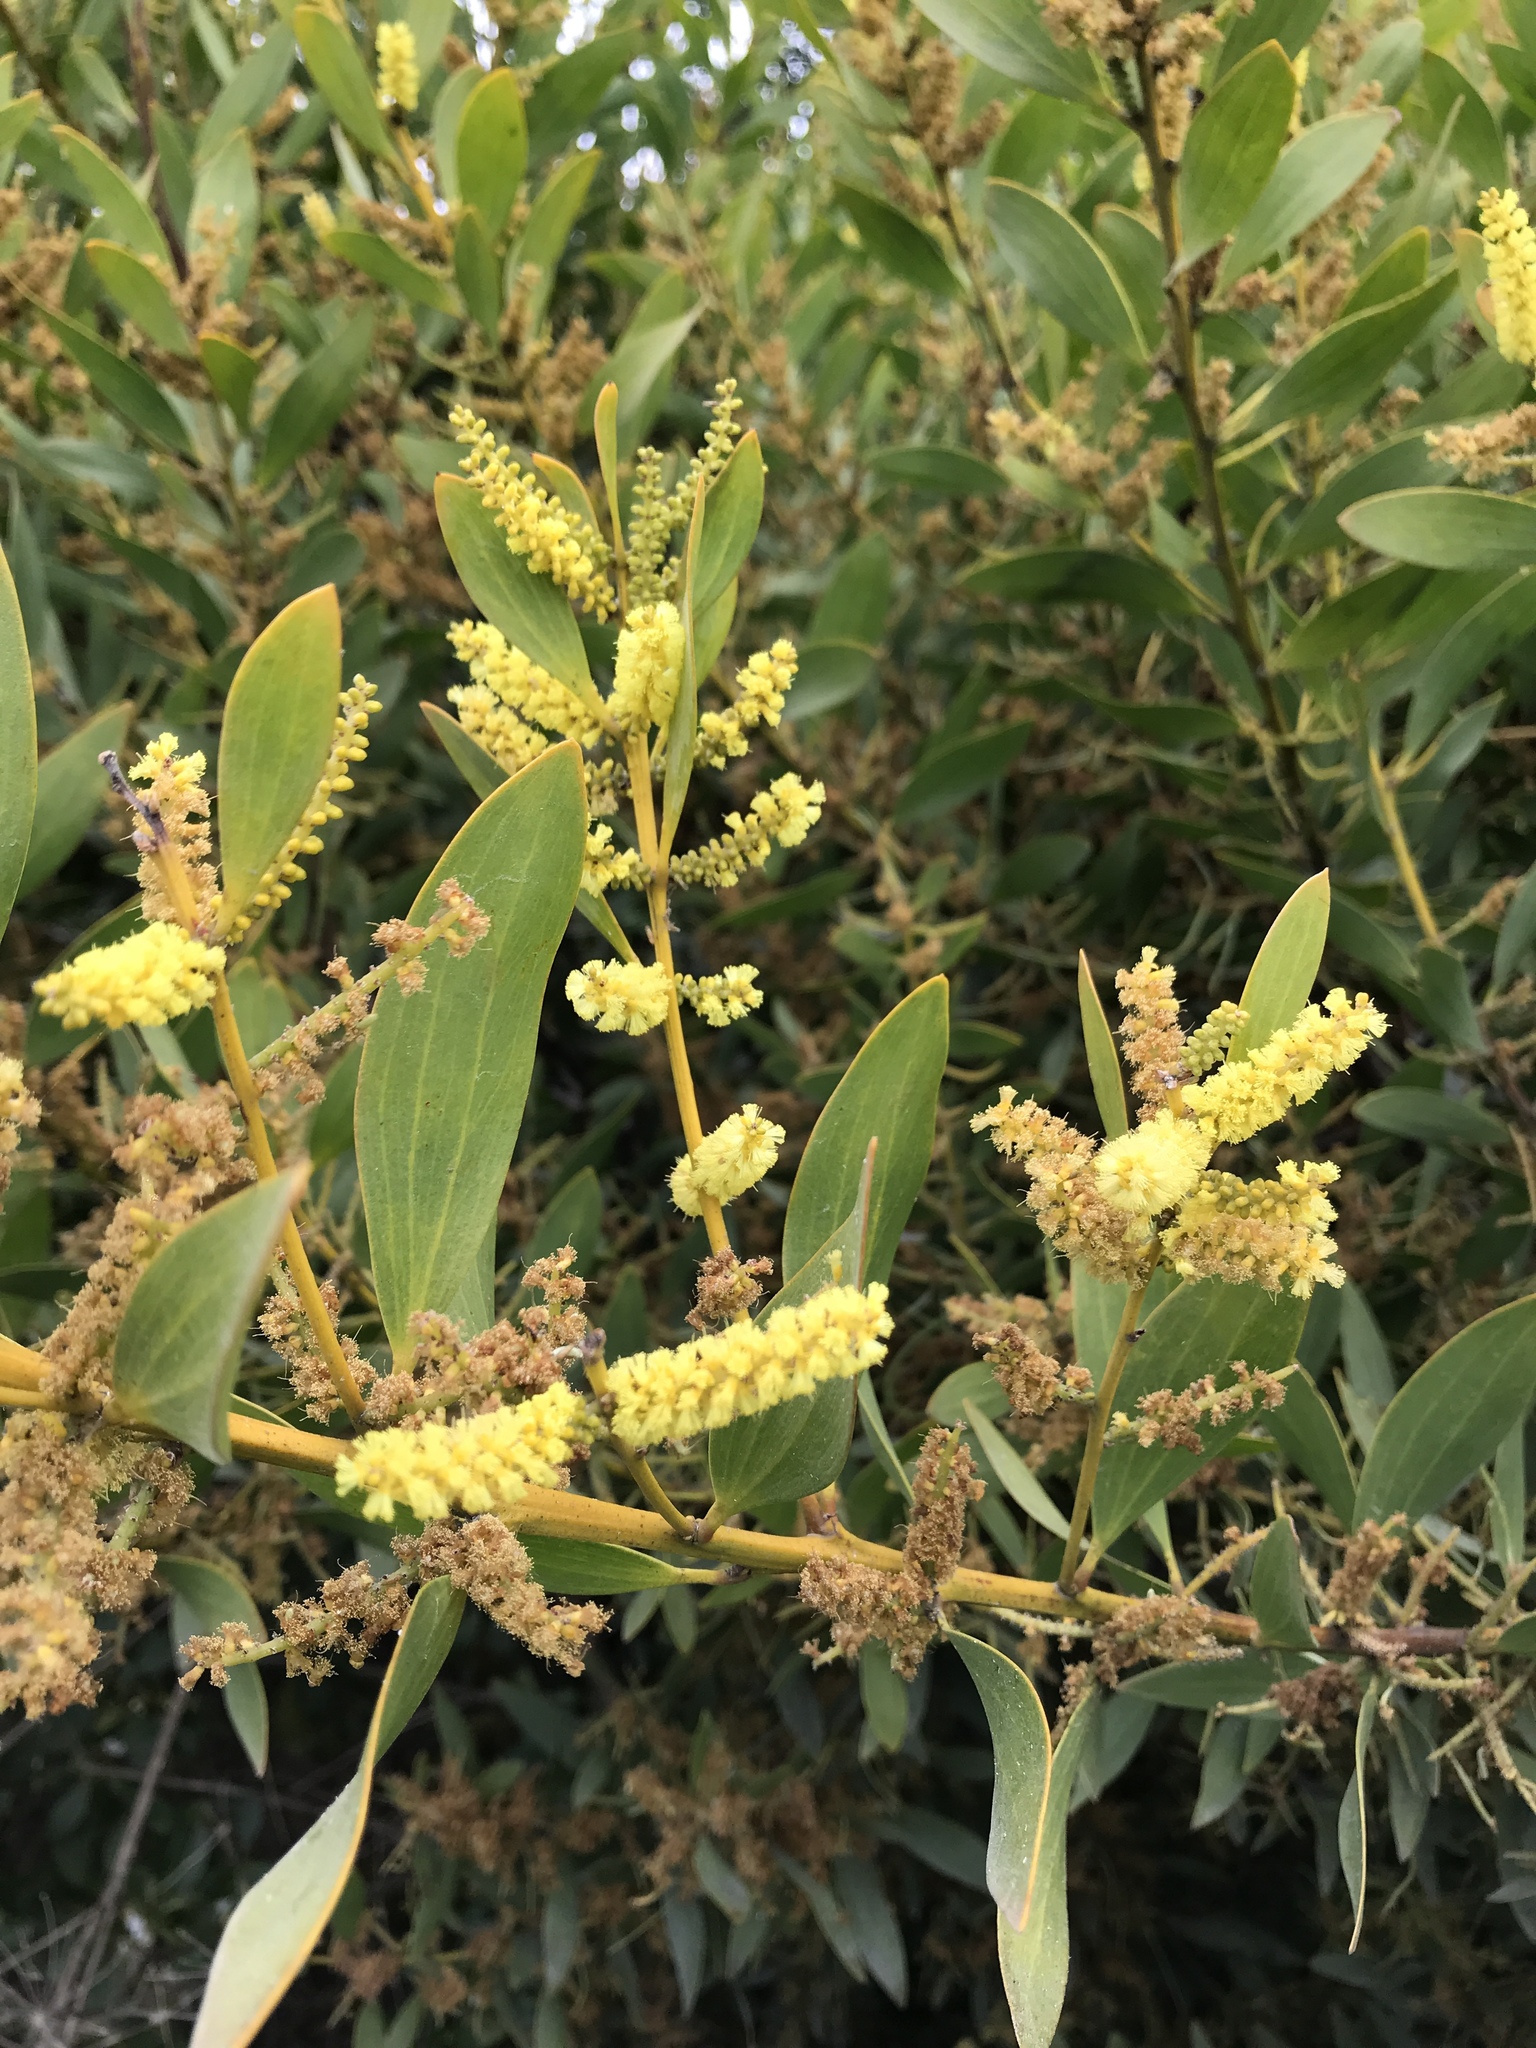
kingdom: Plantae
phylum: Tracheophyta
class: Magnoliopsida
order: Fabales
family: Fabaceae
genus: Acacia
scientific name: Acacia longifolia
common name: Sydney golden wattle
